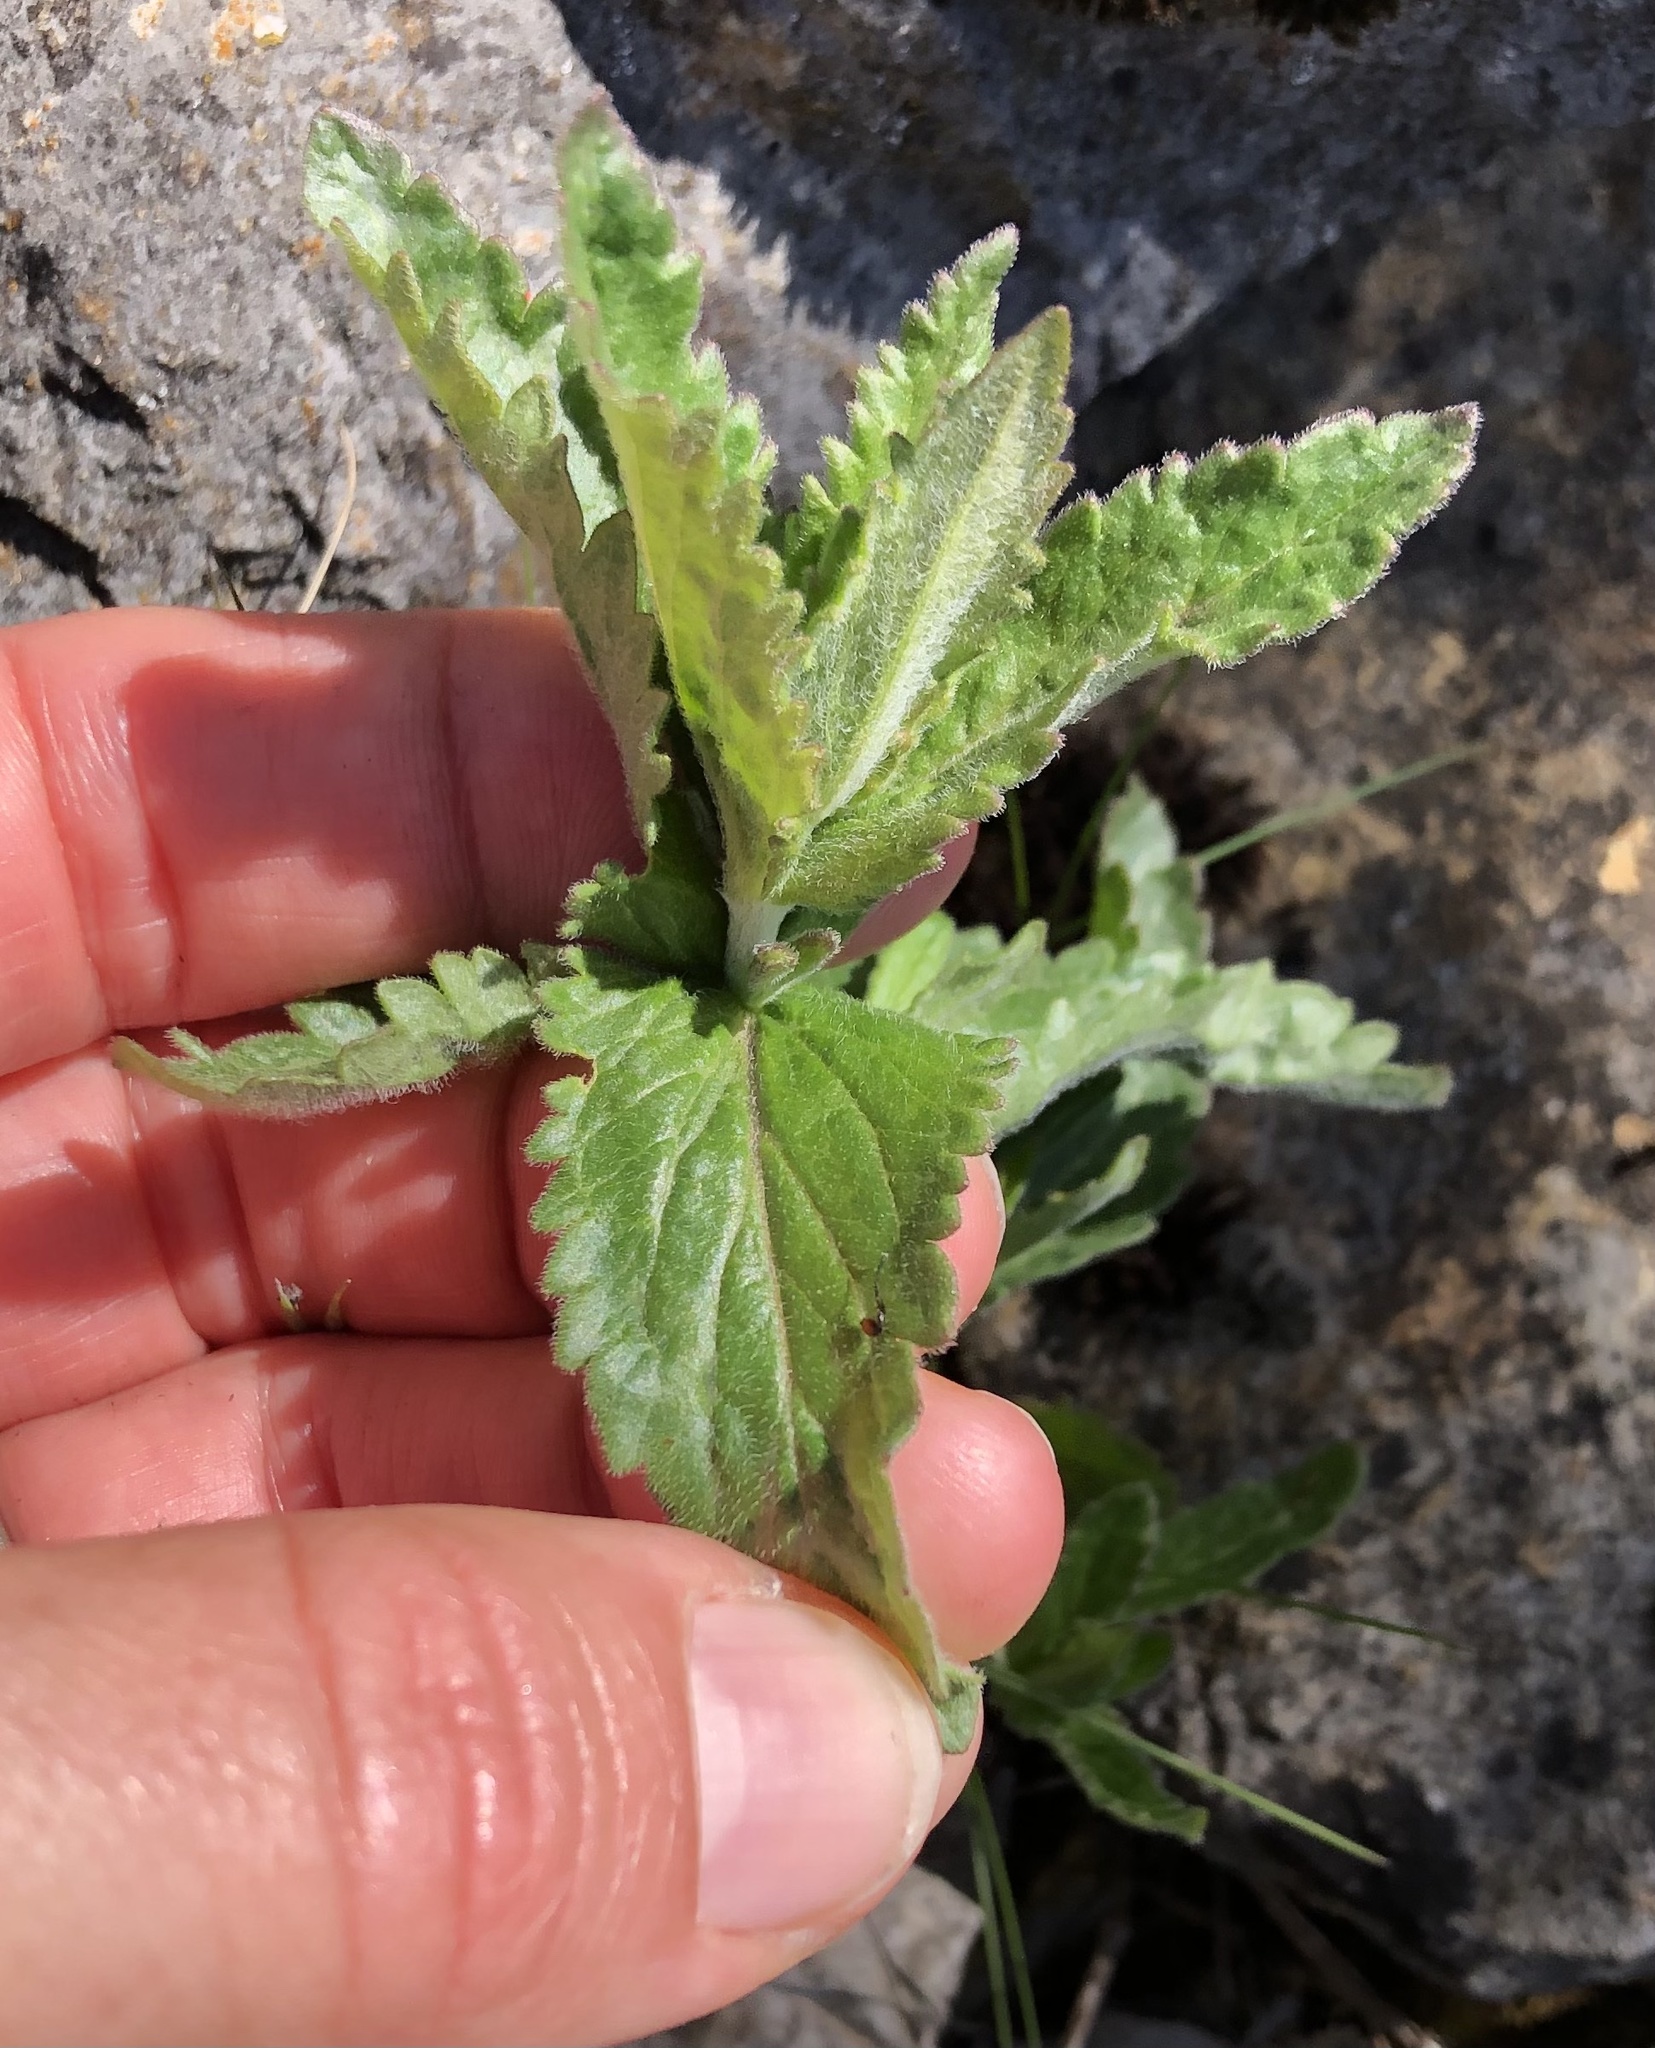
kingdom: Plantae
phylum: Tracheophyta
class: Magnoliopsida
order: Lamiales
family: Plantaginaceae
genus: Veronica
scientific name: Veronica teucrium
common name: Large speedwell
